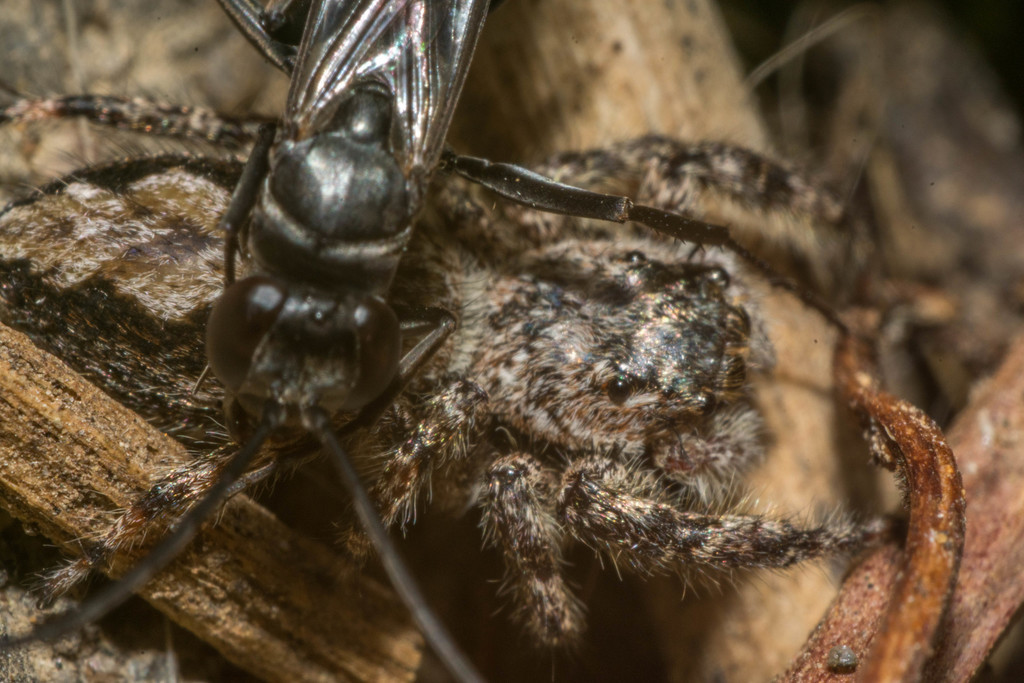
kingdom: Animalia
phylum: Arthropoda
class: Arachnida
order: Araneae
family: Salticidae
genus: Platycryptus
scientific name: Platycryptus undatus
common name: Tan jumping spider
